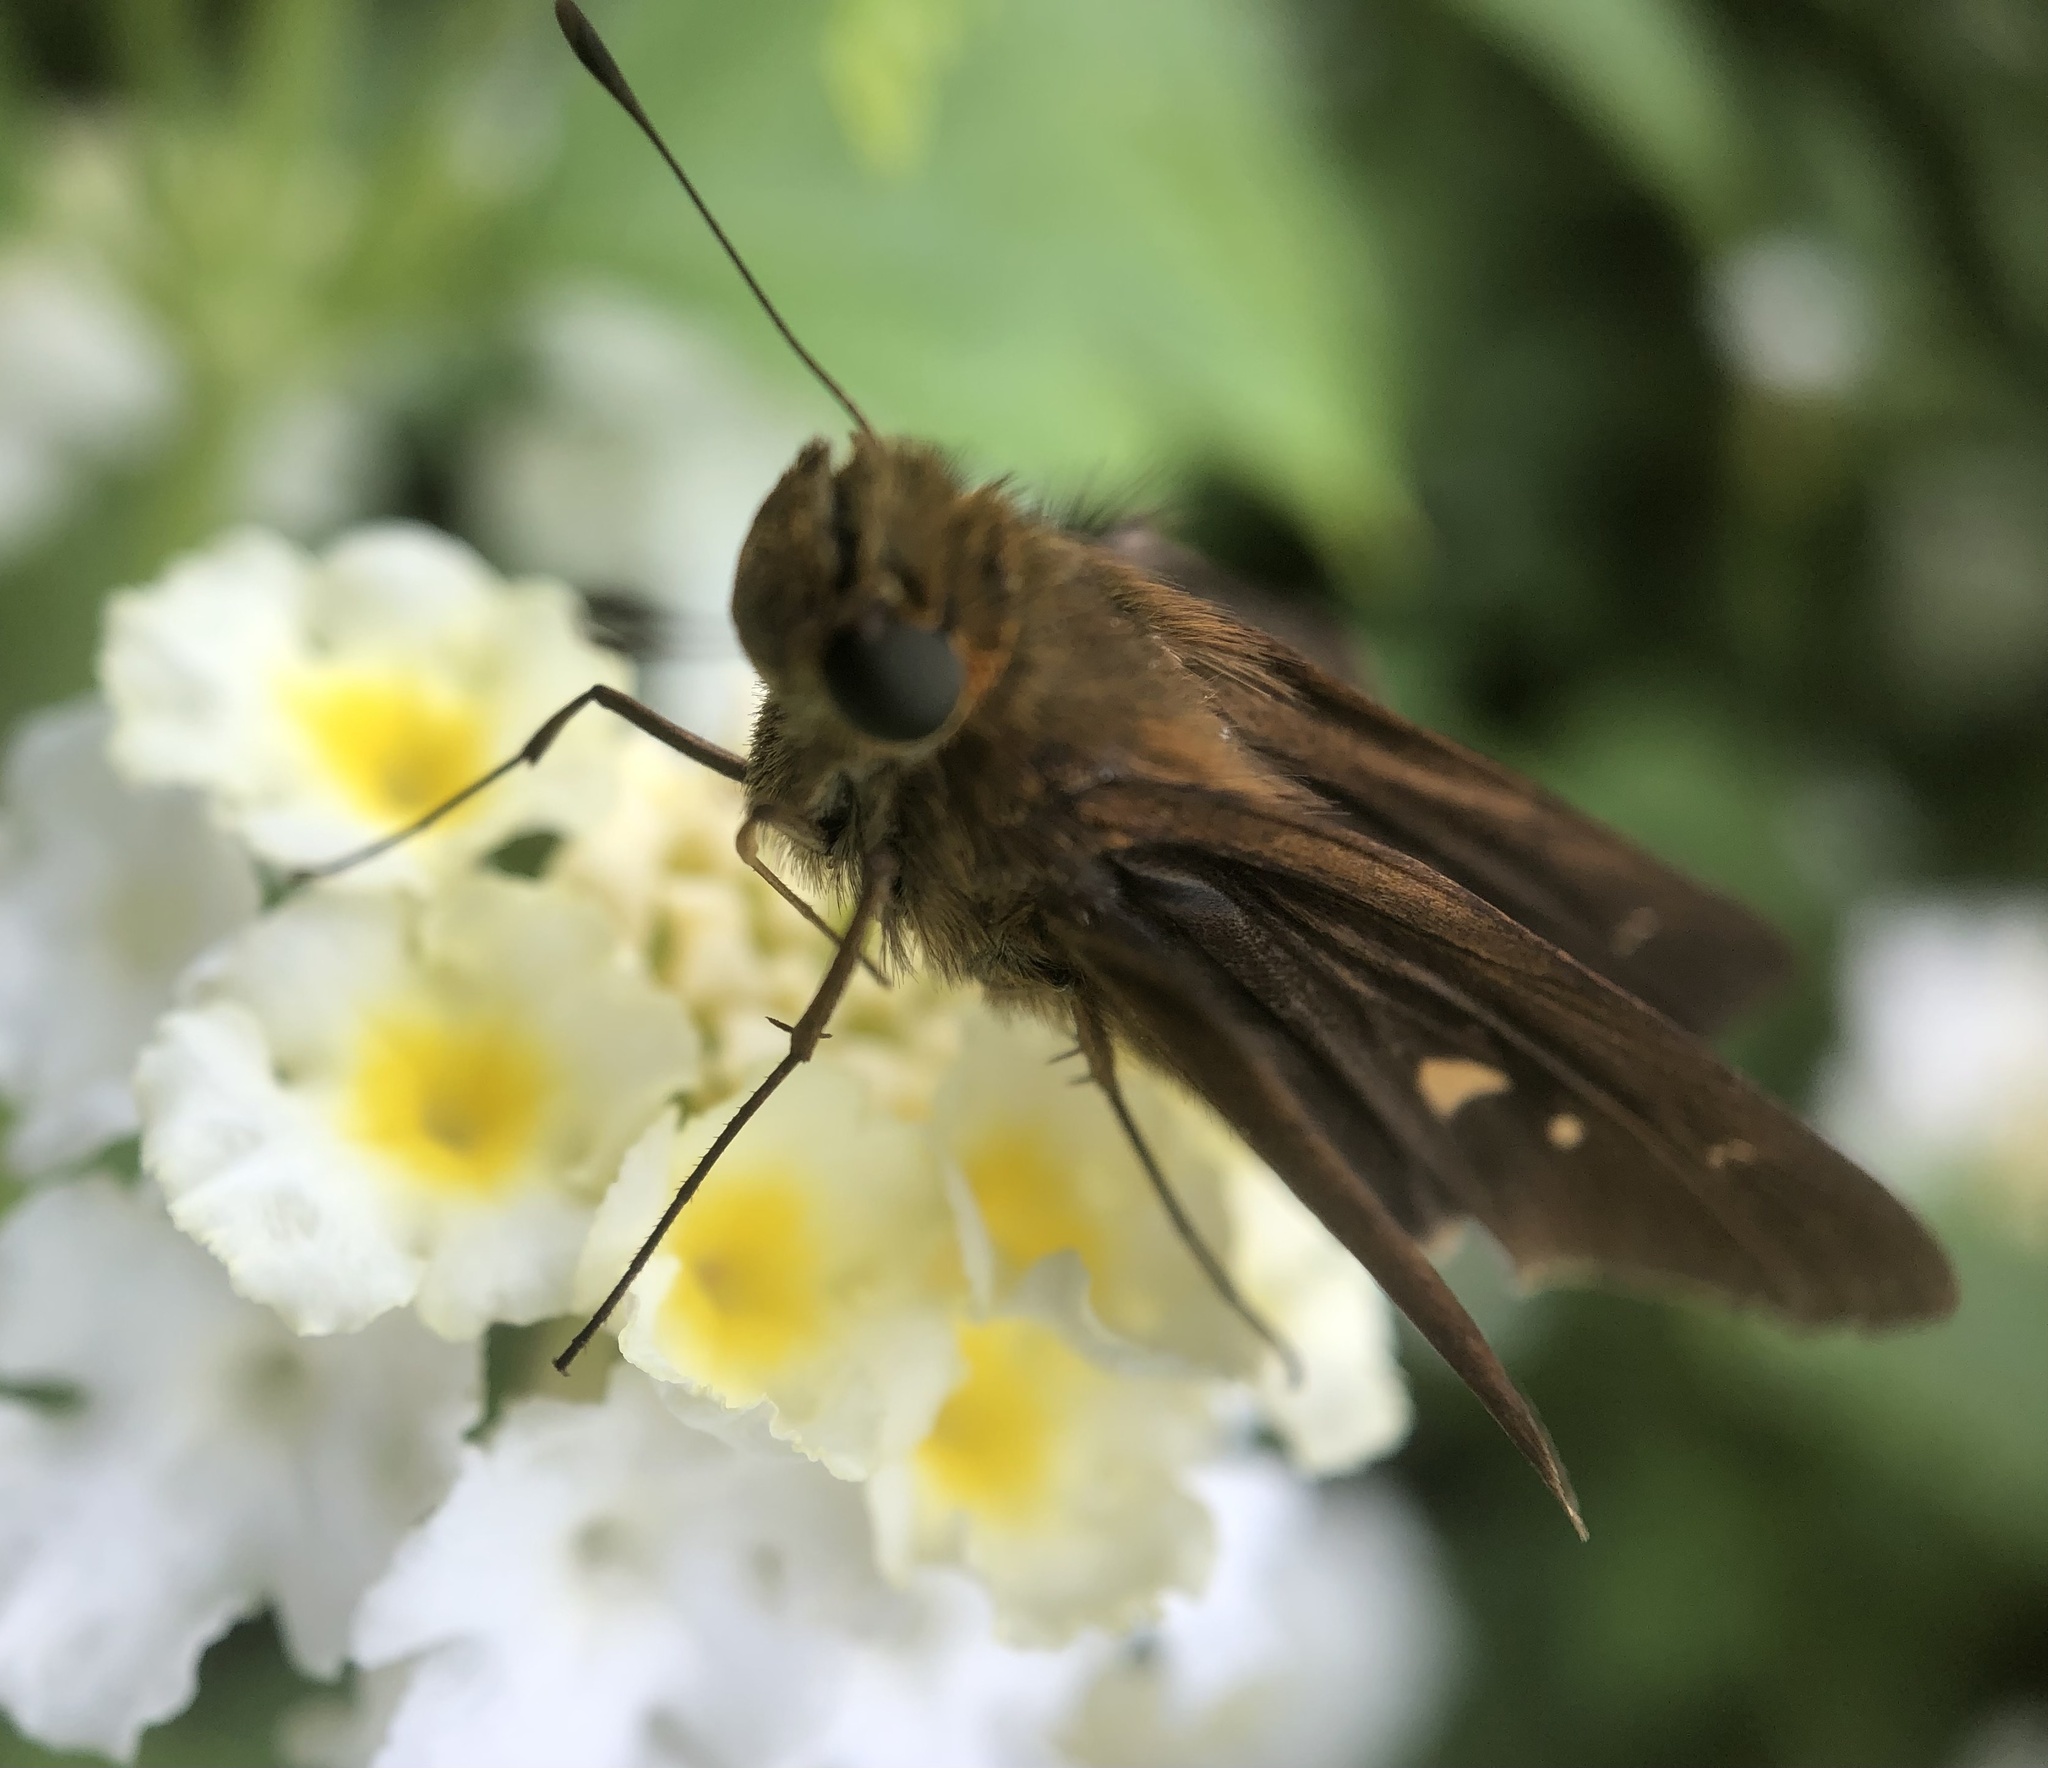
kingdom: Animalia
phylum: Arthropoda
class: Insecta
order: Lepidoptera
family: Hesperiidae
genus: Panoquina
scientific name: Panoquina ocola
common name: Ocola skipper
